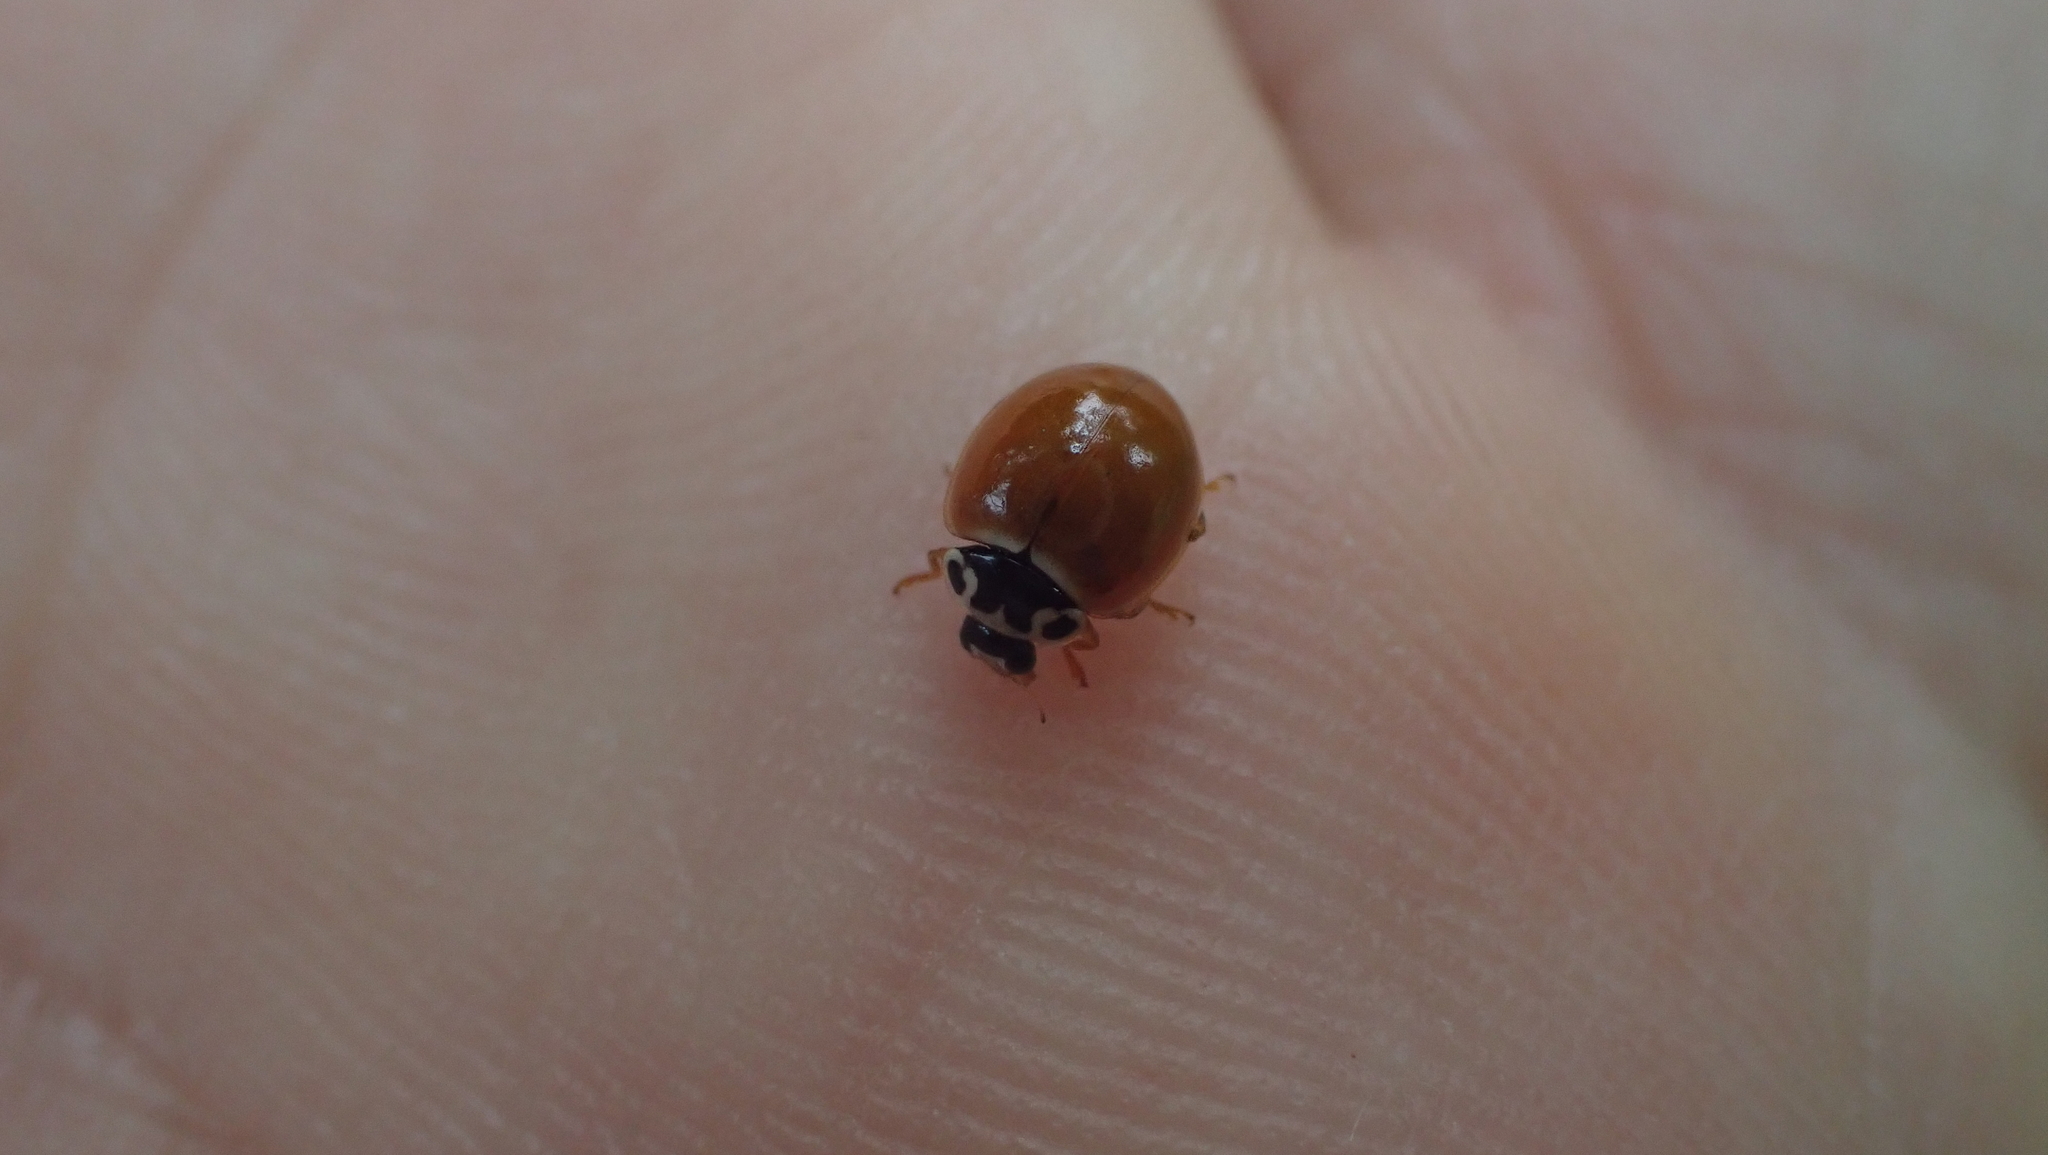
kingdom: Animalia
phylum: Arthropoda
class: Insecta
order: Coleoptera
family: Coccinellidae
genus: Cycloneda
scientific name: Cycloneda munda
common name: Polished lady beetle
